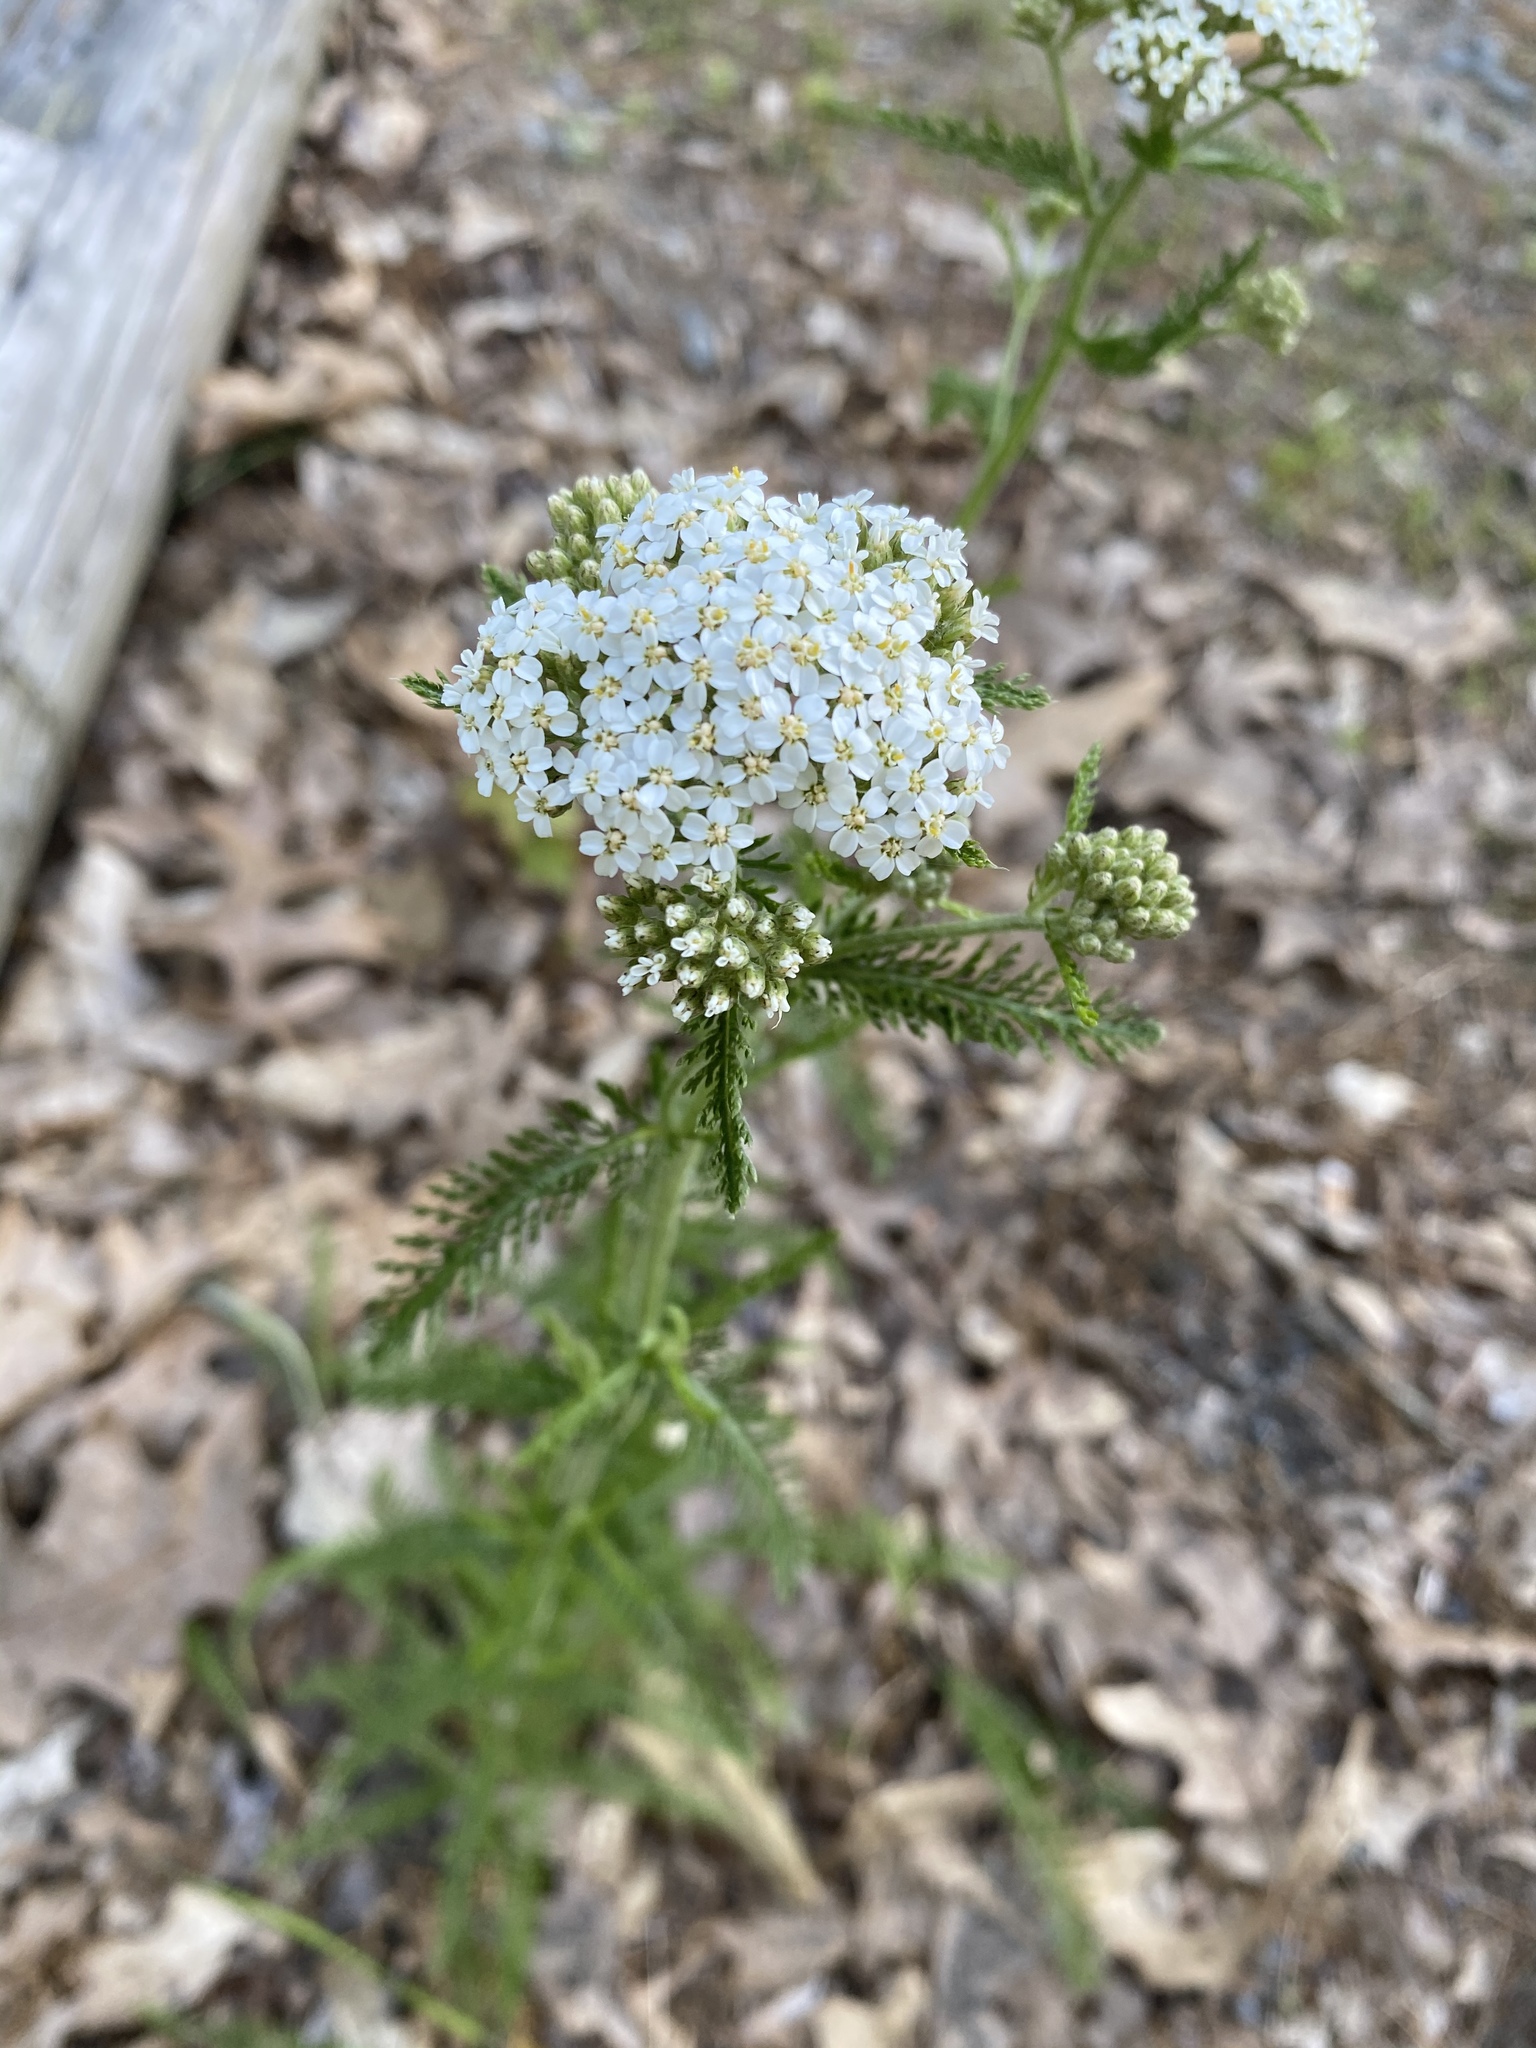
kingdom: Plantae
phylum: Tracheophyta
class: Magnoliopsida
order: Asterales
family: Asteraceae
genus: Achillea
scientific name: Achillea millefolium
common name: Yarrow
